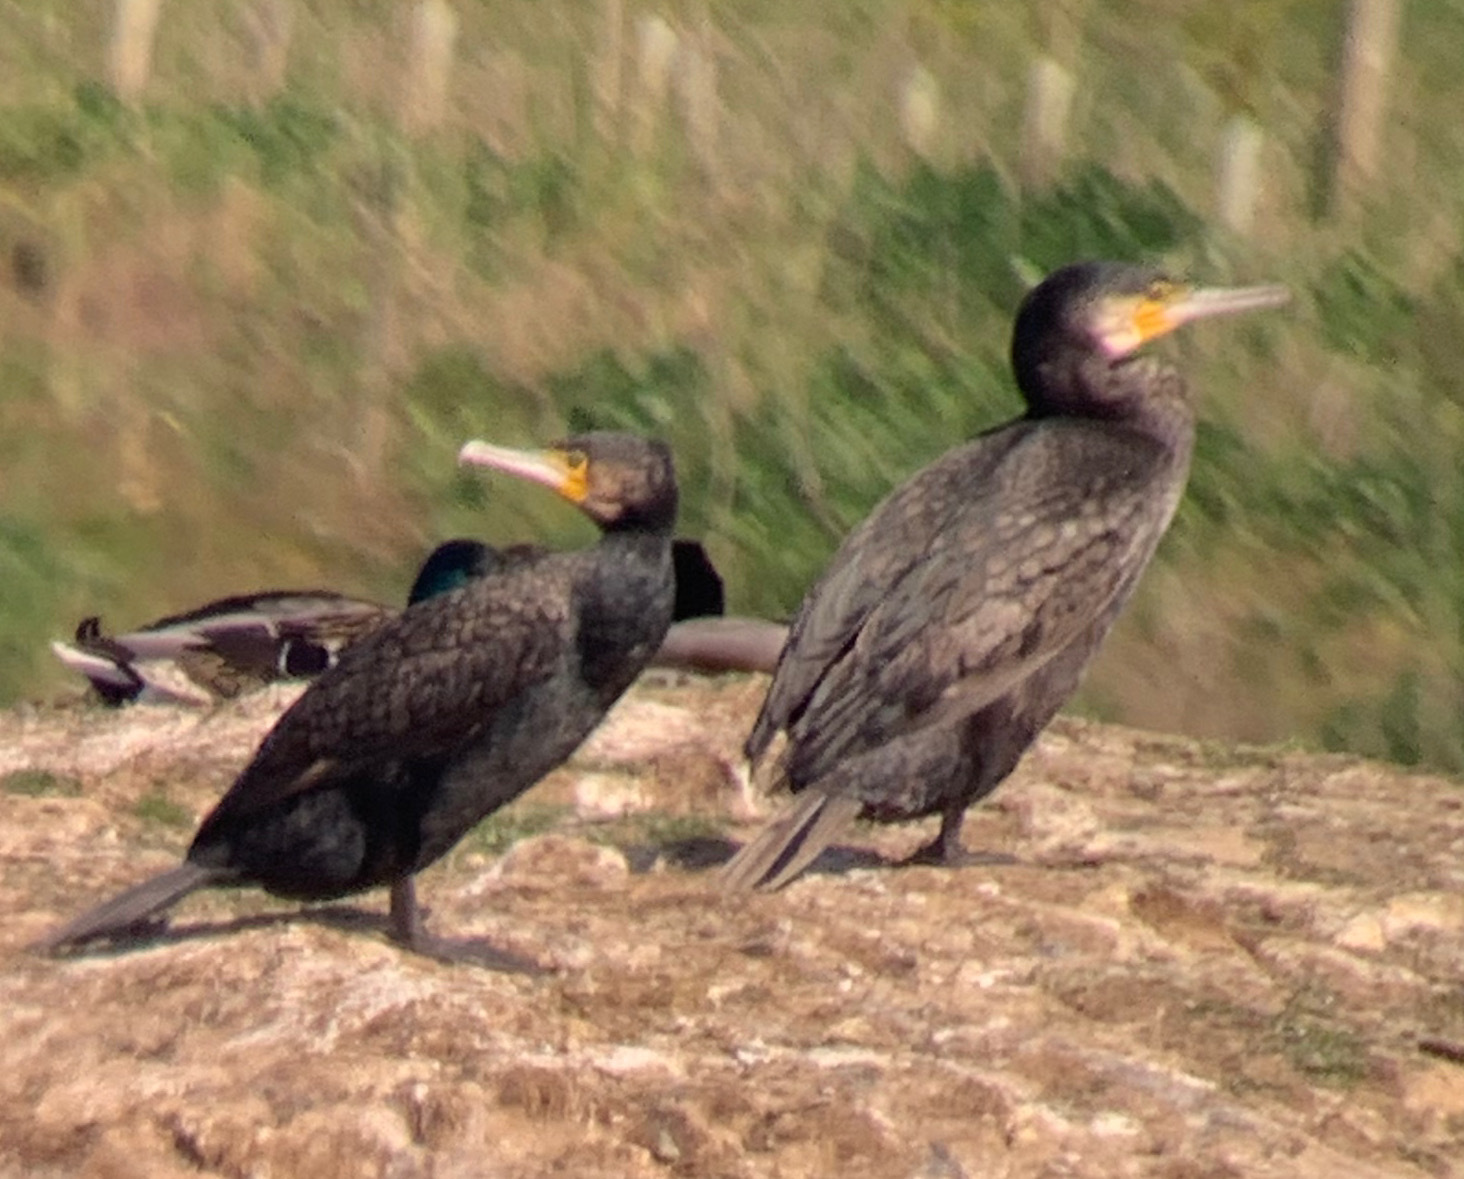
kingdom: Animalia
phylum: Chordata
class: Aves
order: Suliformes
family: Phalacrocoracidae
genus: Phalacrocorax
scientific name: Phalacrocorax carbo
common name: Great cormorant
